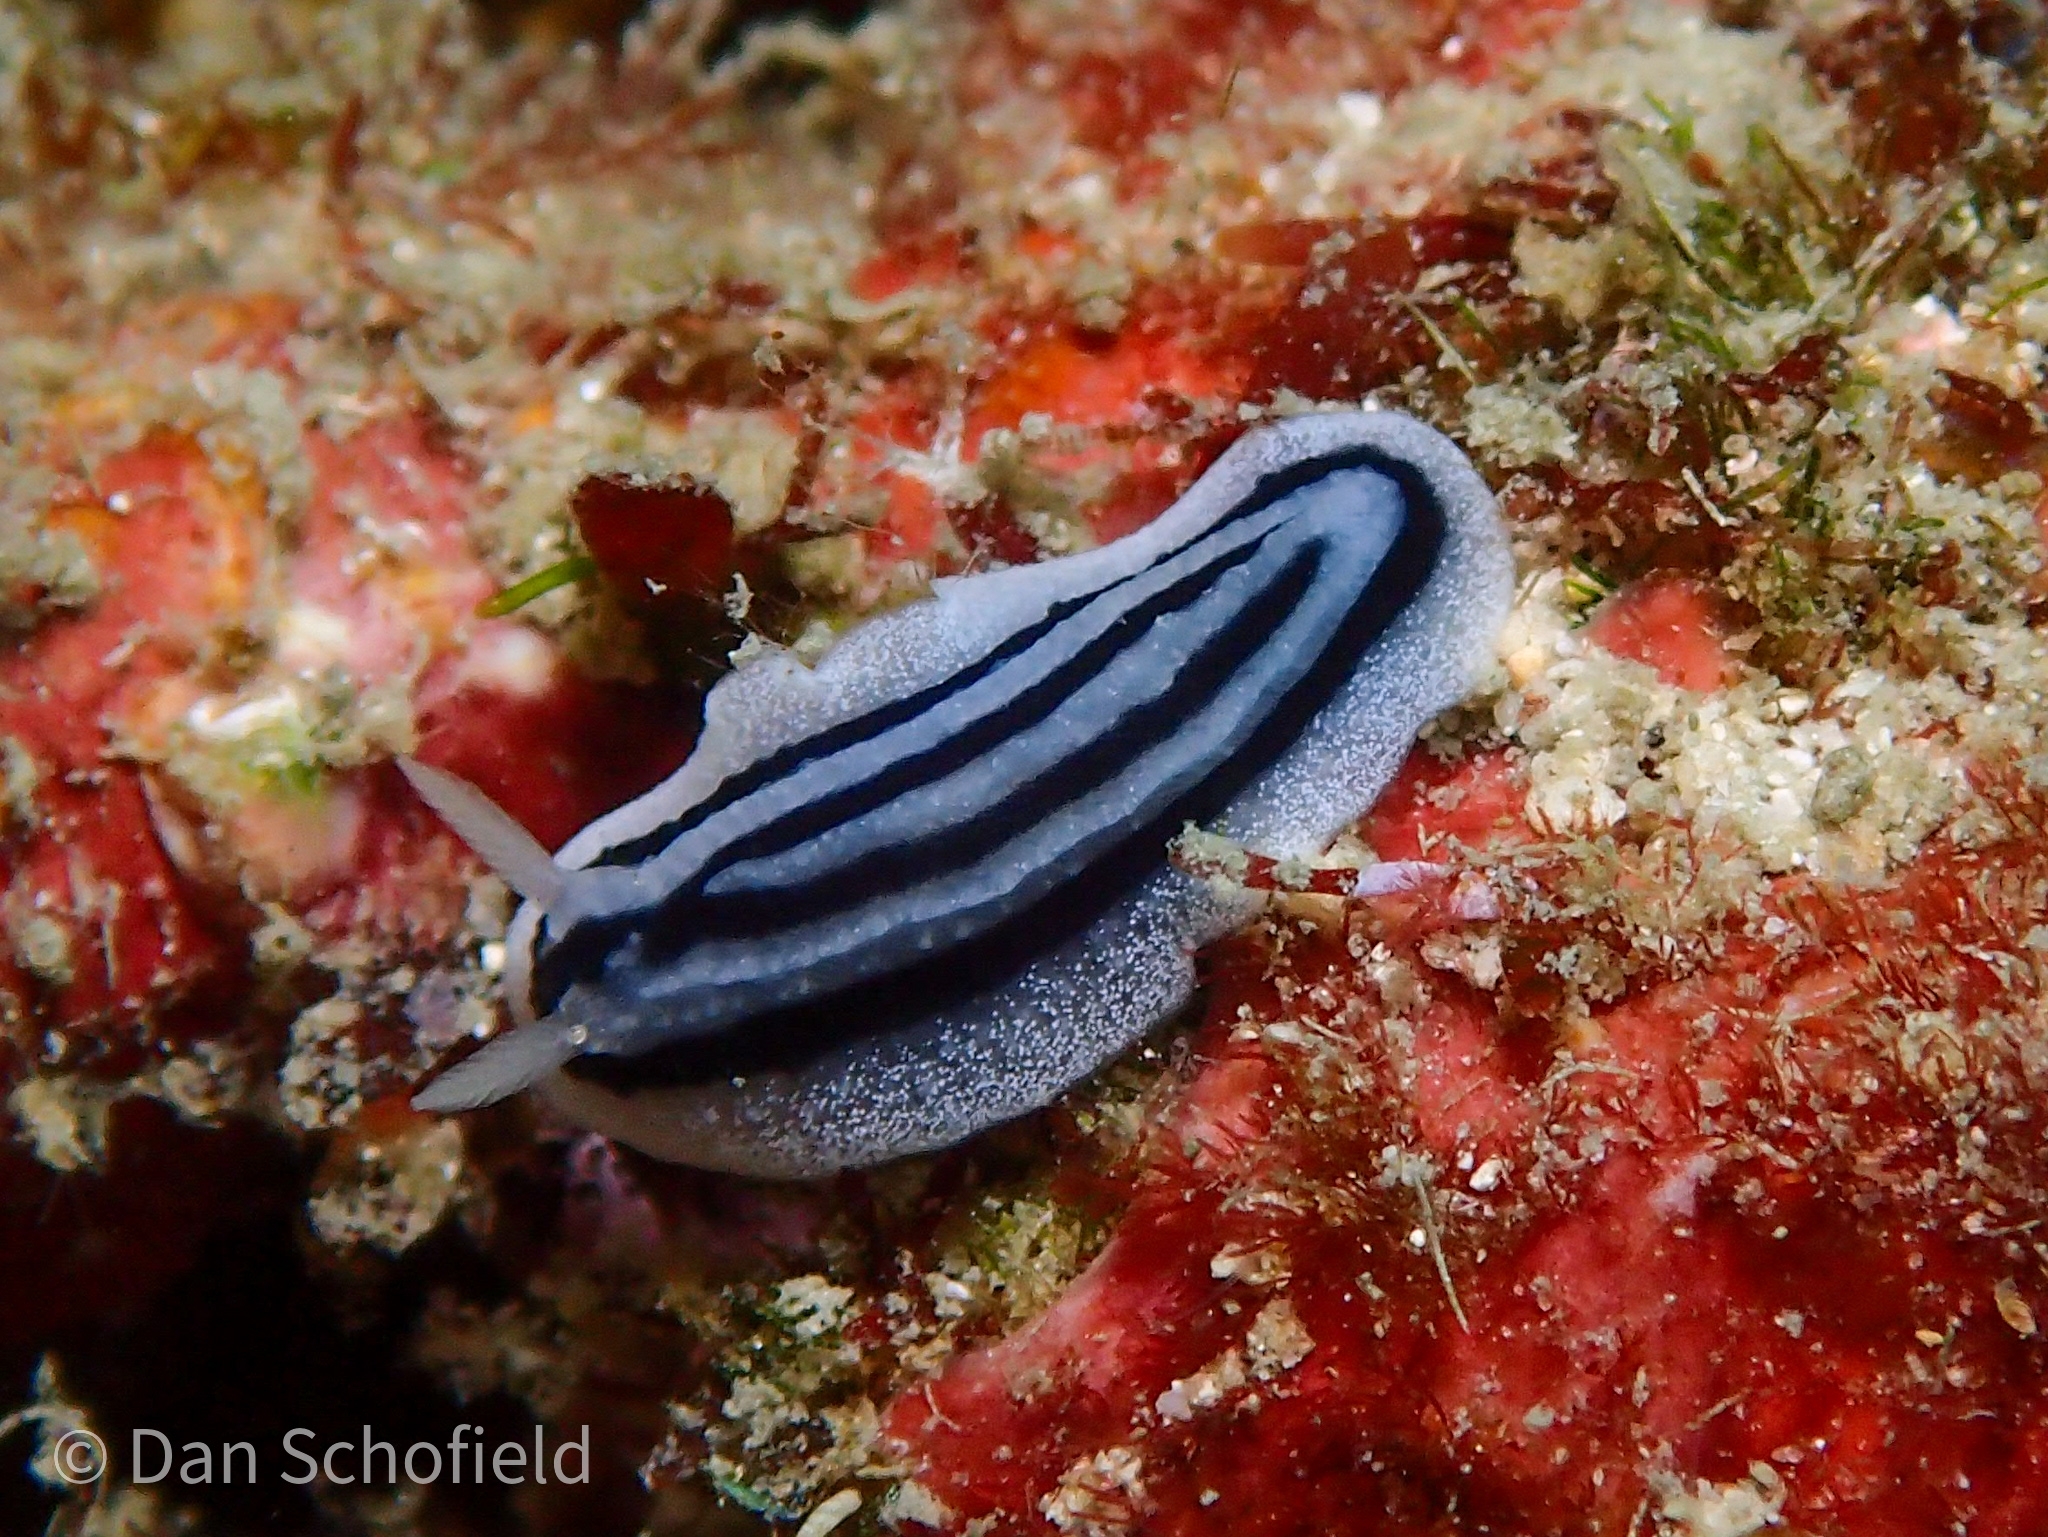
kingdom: Animalia
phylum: Mollusca
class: Gastropoda
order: Nudibranchia
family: Phyllidiidae
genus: Phyllidiopsis
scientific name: Phyllidiopsis xishaensis
